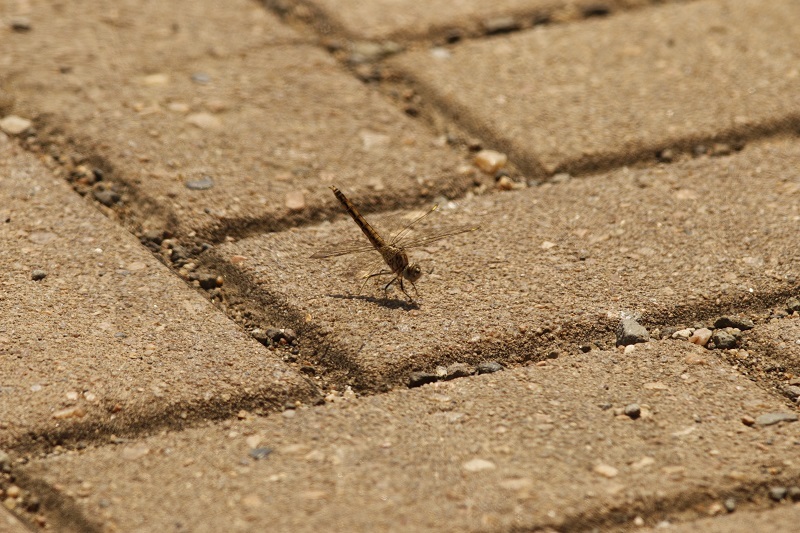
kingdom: Animalia
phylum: Arthropoda
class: Insecta
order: Odonata
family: Libellulidae
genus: Brachythemis
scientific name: Brachythemis leucosticta
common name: Banded groundling
